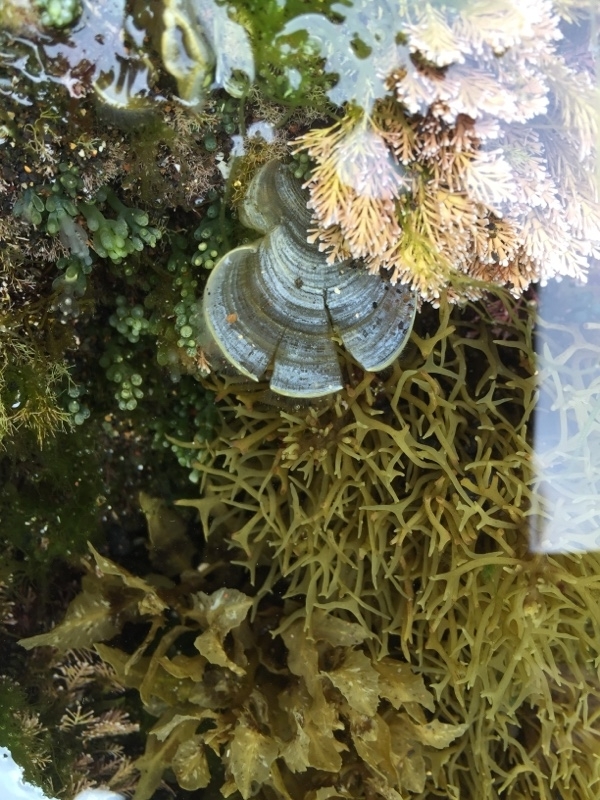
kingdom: Chromista
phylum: Ochrophyta
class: Phaeophyceae
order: Dictyotales
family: Dictyotaceae
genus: Padina
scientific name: Padina pavonica
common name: Turkey feather alga
